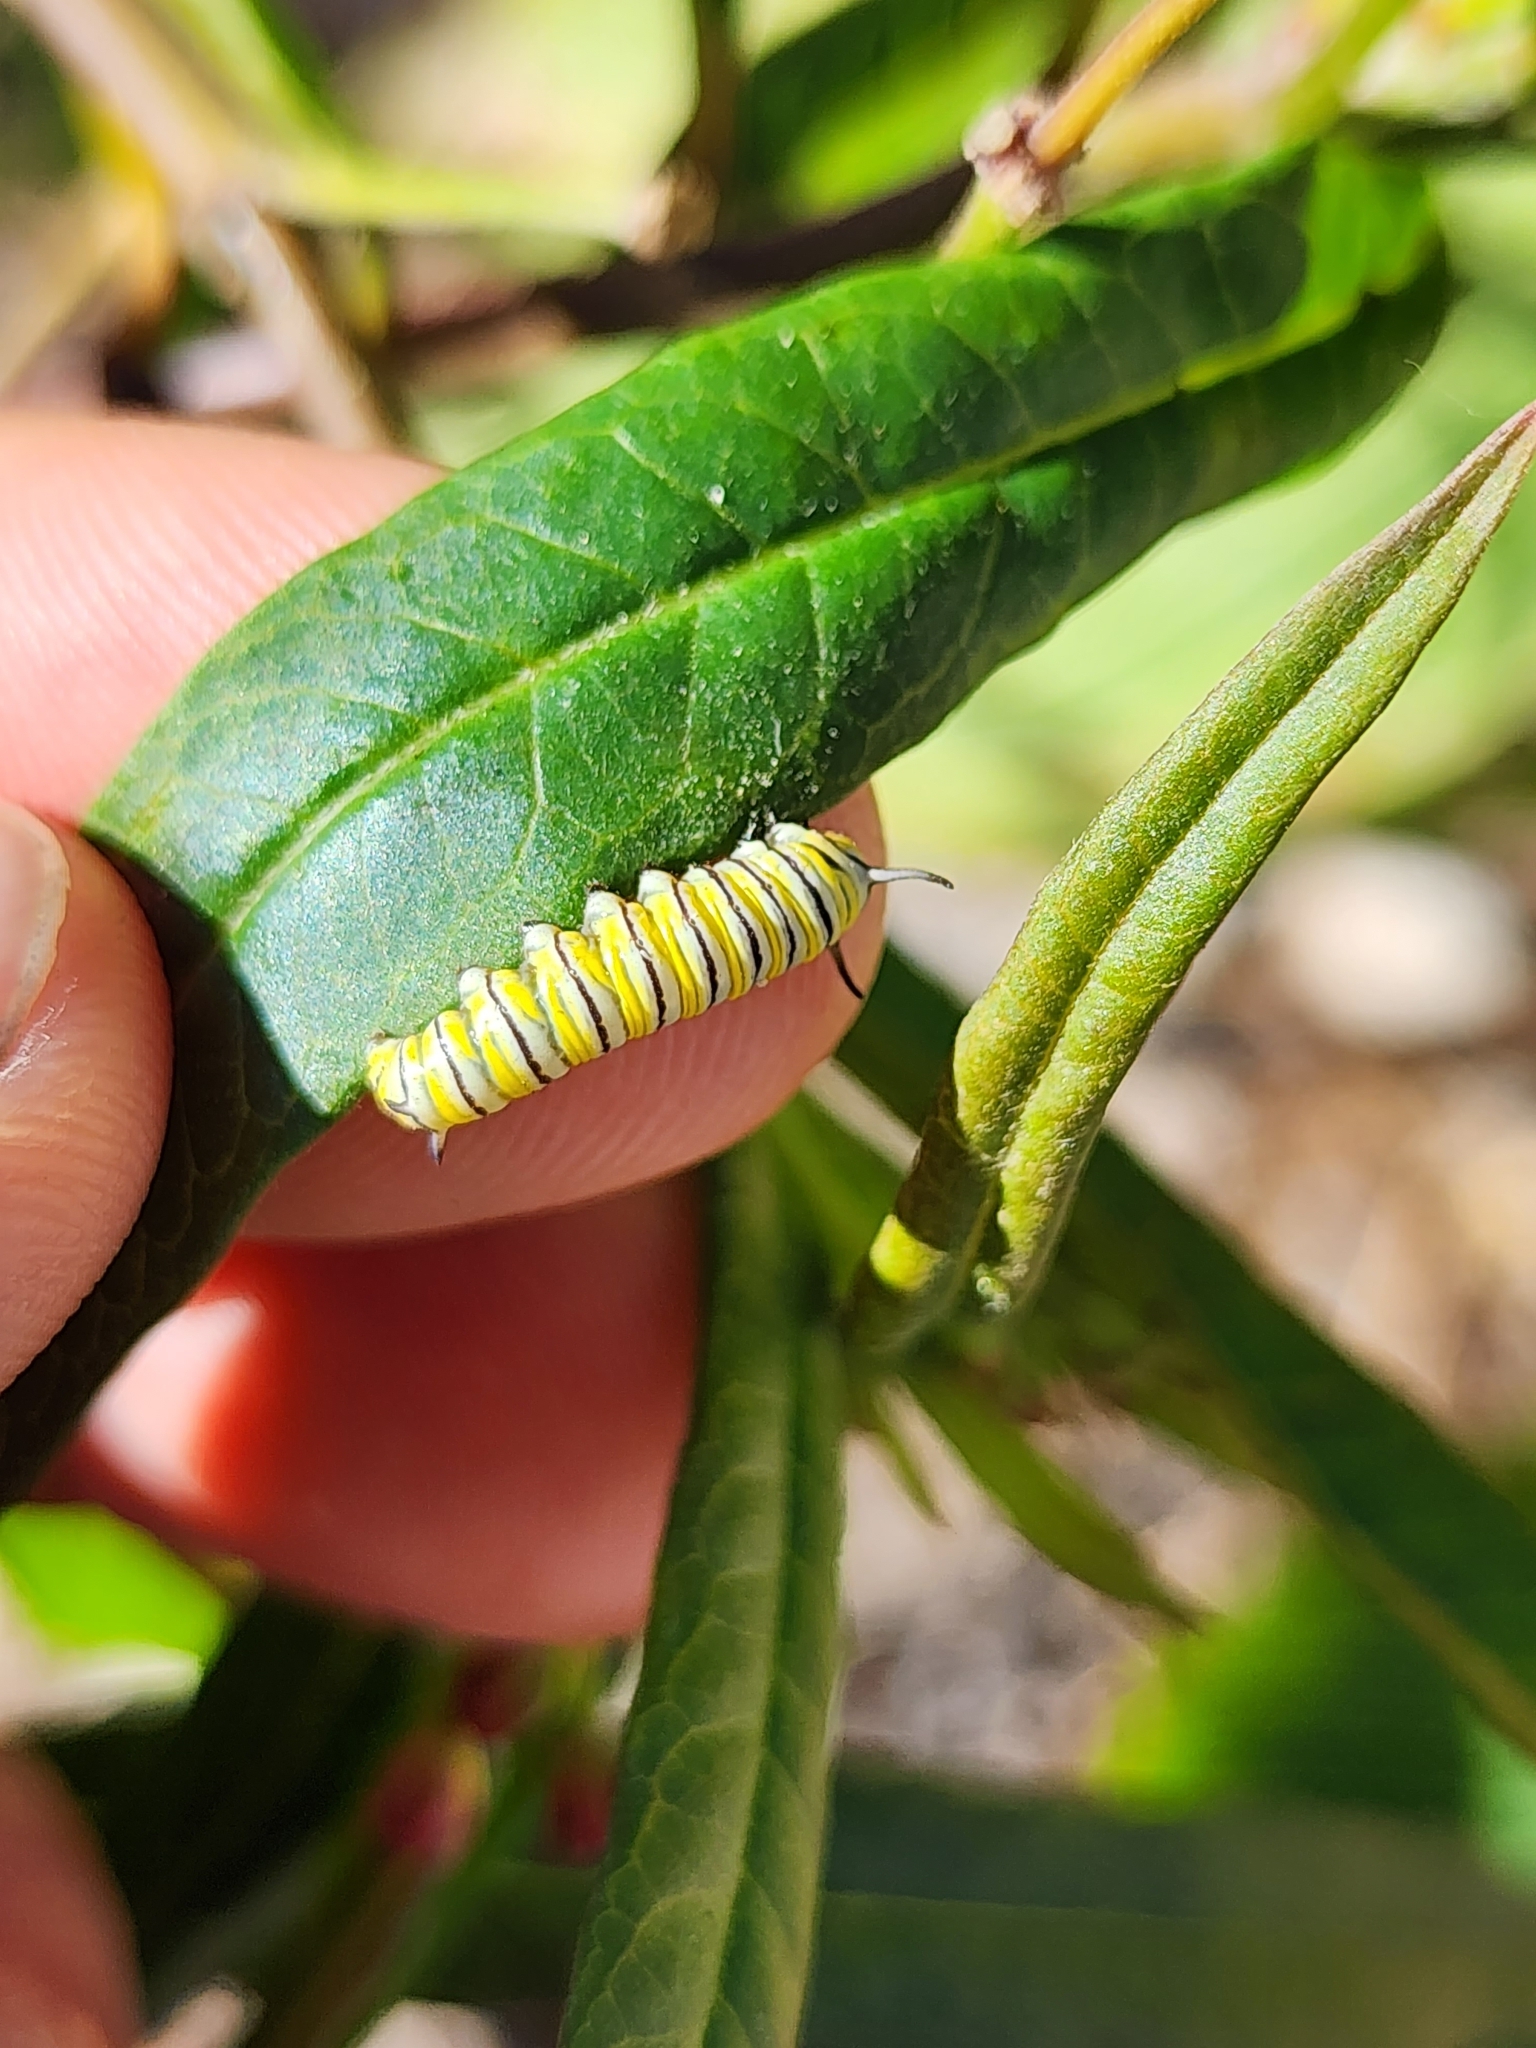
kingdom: Animalia
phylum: Arthropoda
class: Insecta
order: Lepidoptera
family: Nymphalidae
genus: Danaus
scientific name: Danaus plexippus
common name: Monarch
